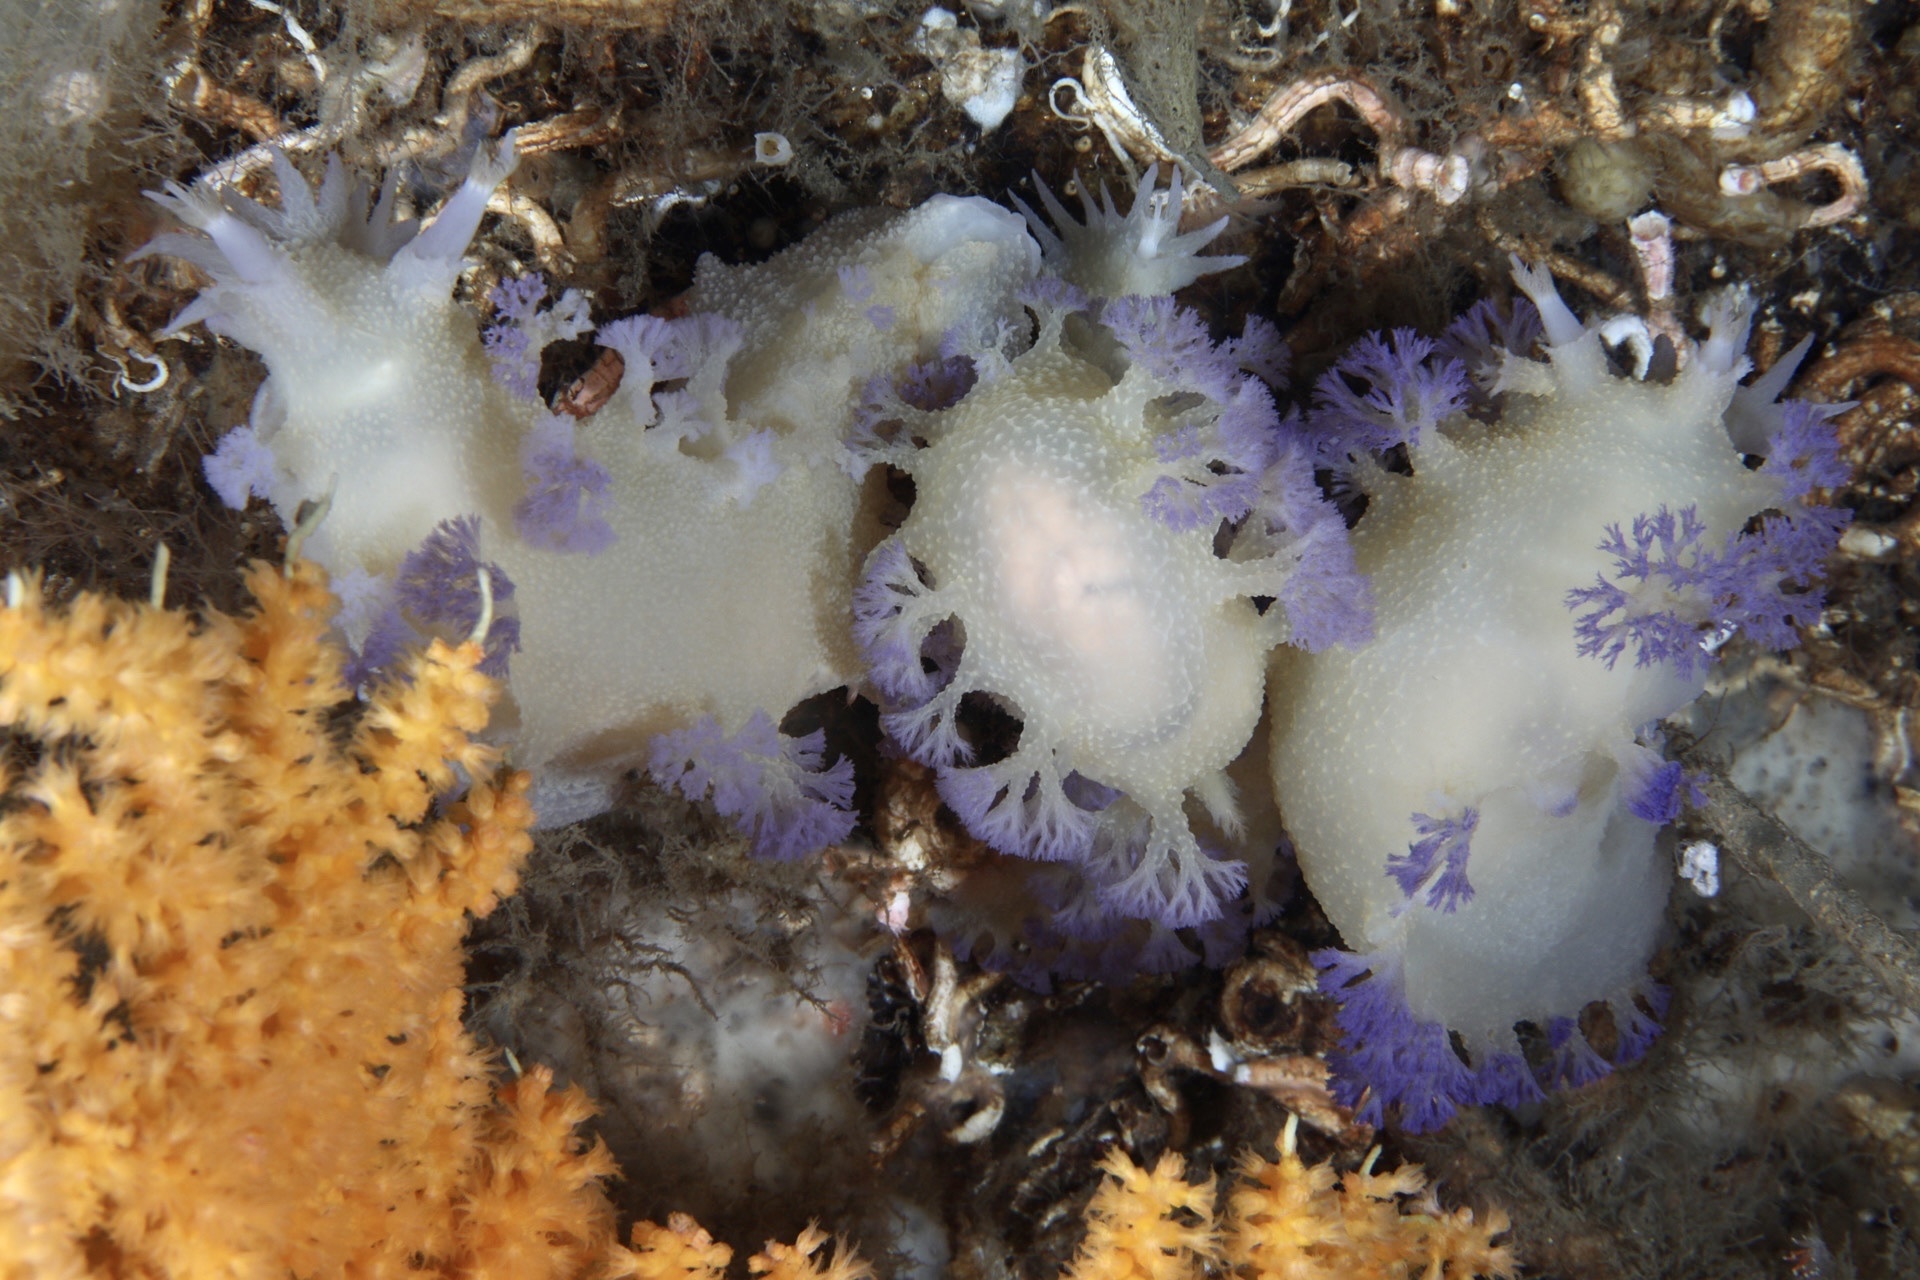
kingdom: Animalia
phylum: Mollusca
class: Gastropoda
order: Nudibranchia
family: Tritoniidae
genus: Tritonia
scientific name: Tritonia griegi
